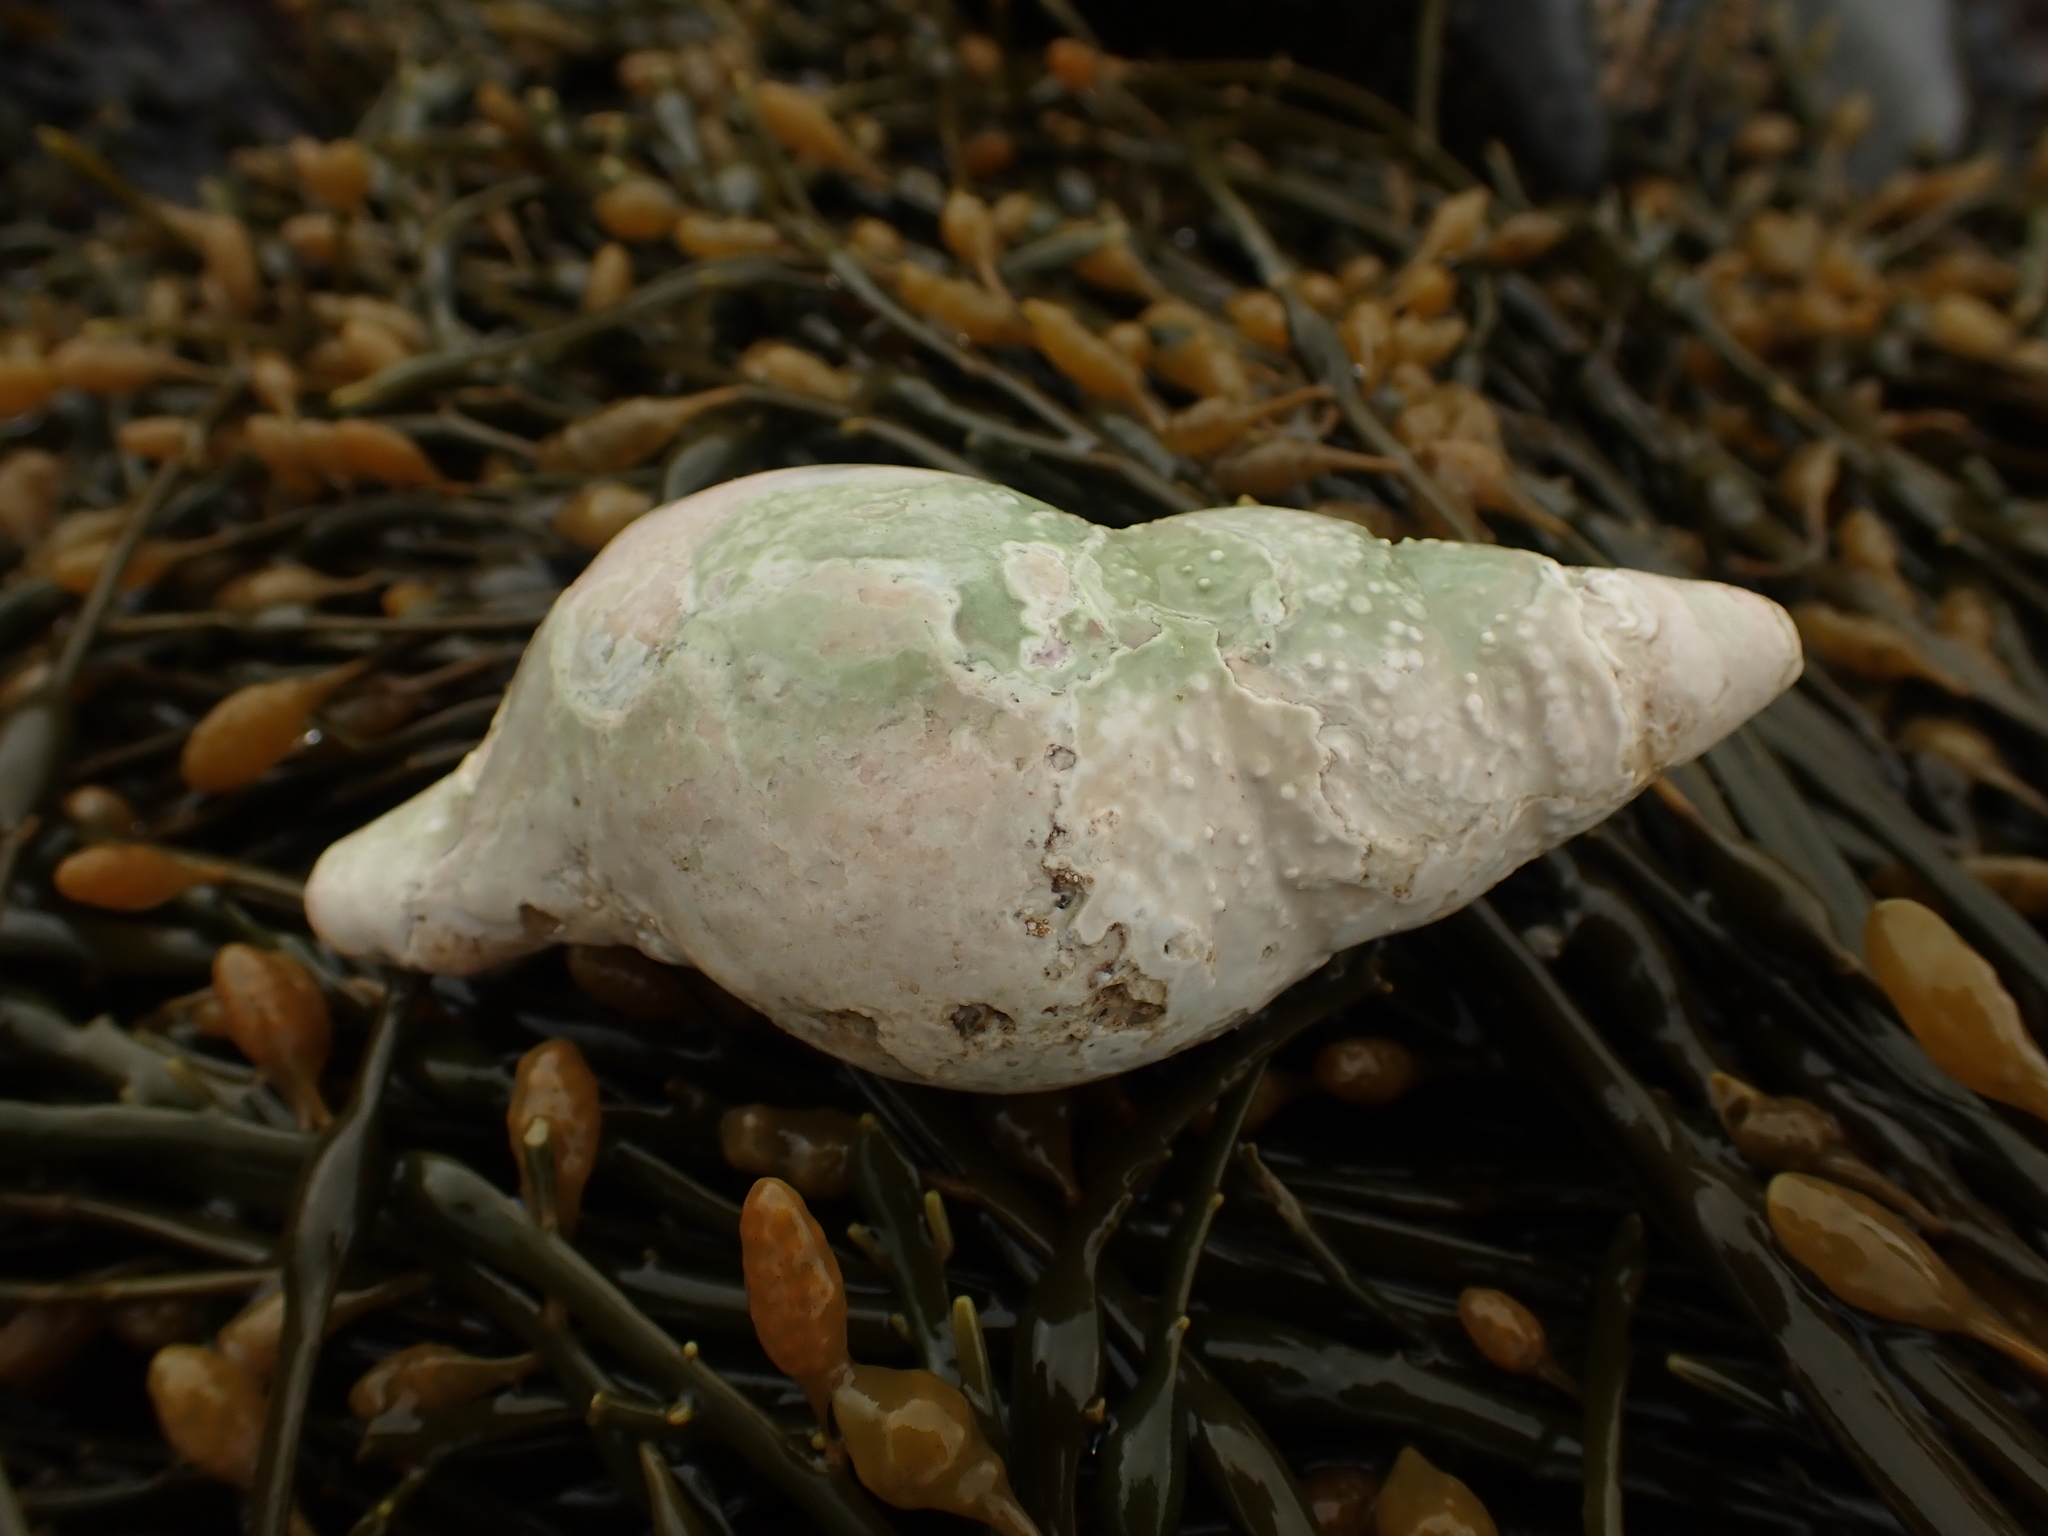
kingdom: Animalia
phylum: Mollusca
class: Gastropoda
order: Neogastropoda
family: Colidae
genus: Colus
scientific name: Colus stimpsoni
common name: Stimpson's colus
